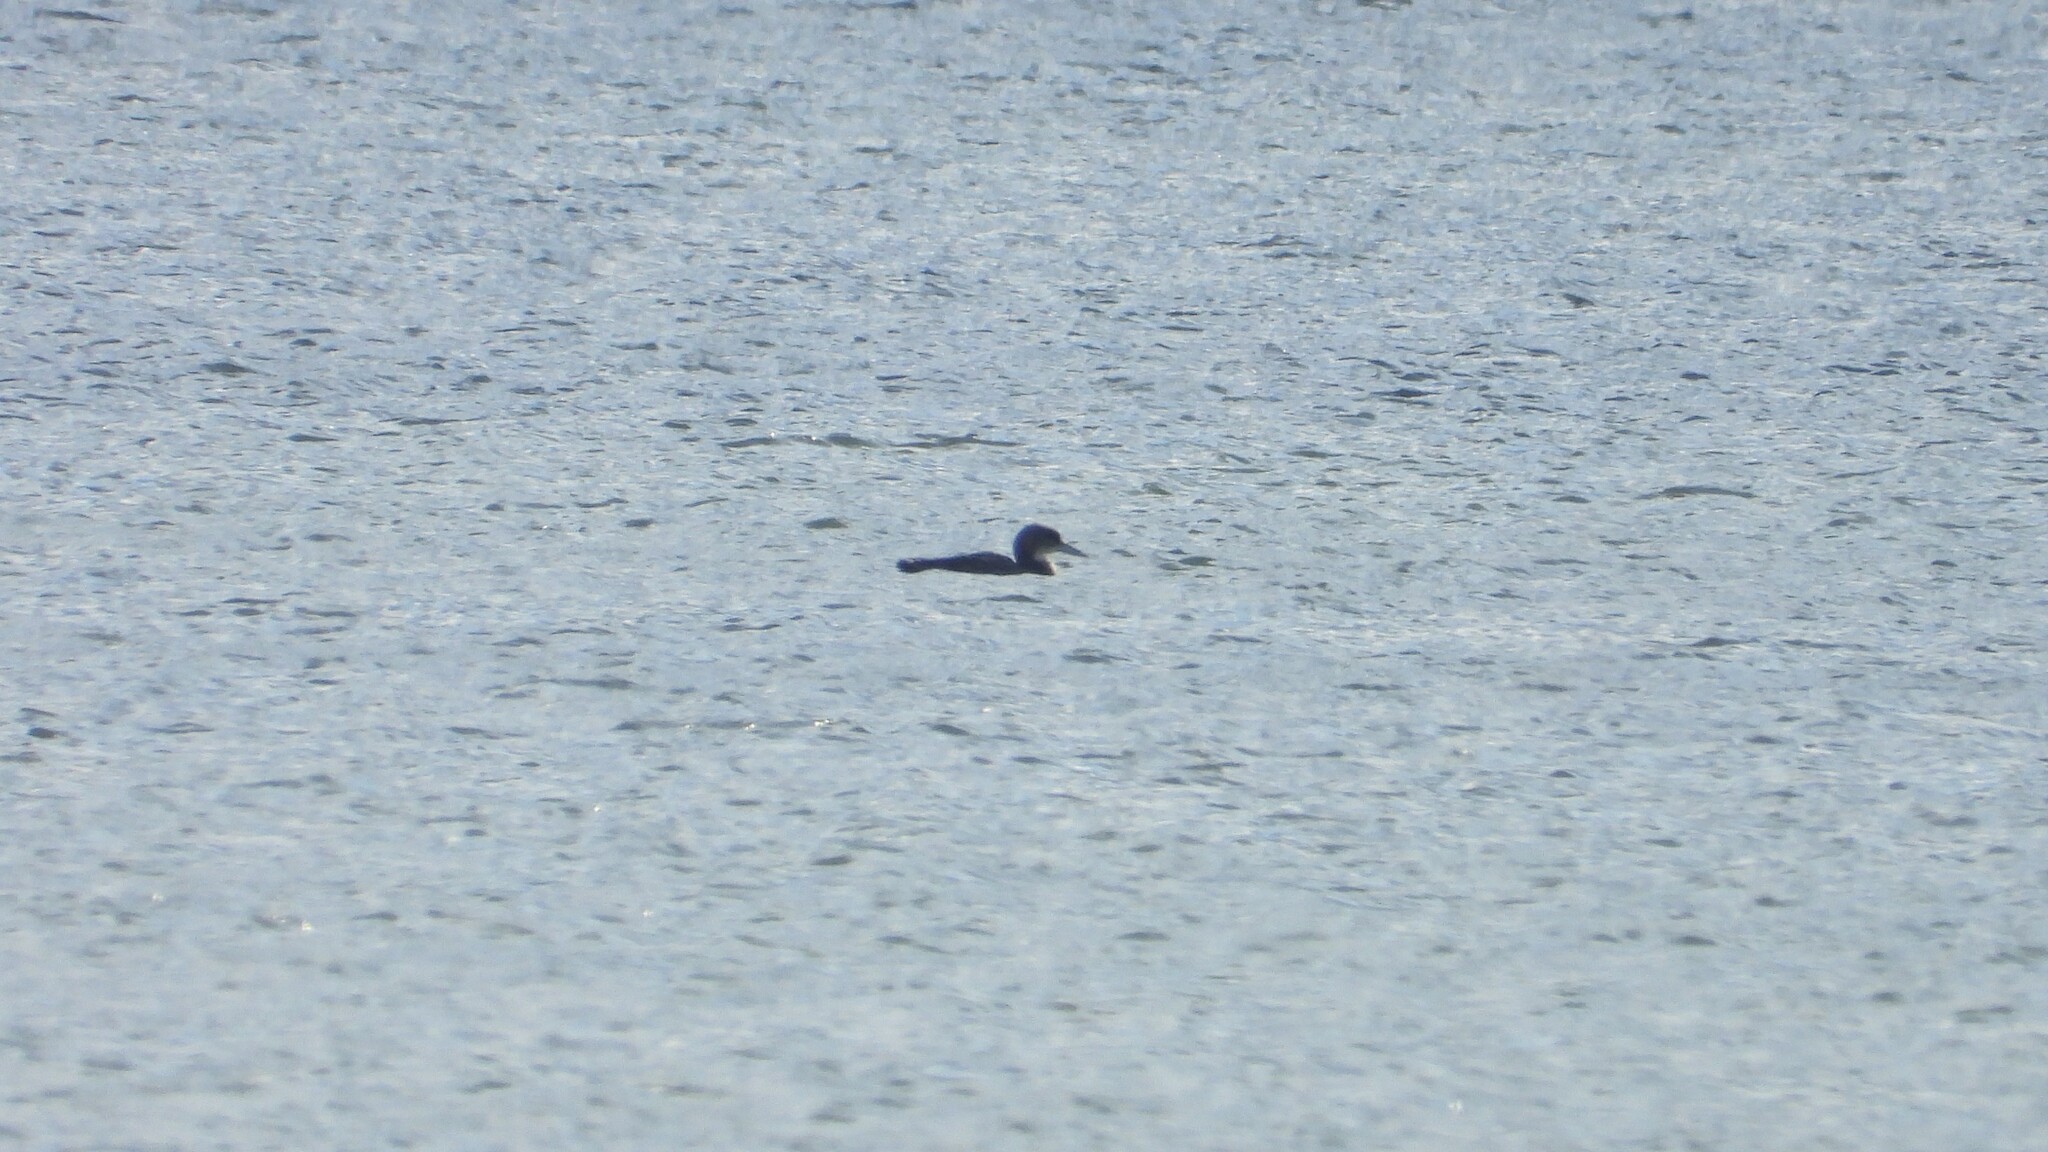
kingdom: Animalia
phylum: Chordata
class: Aves
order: Gaviiformes
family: Gaviidae
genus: Gavia
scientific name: Gavia immer
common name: Common loon
